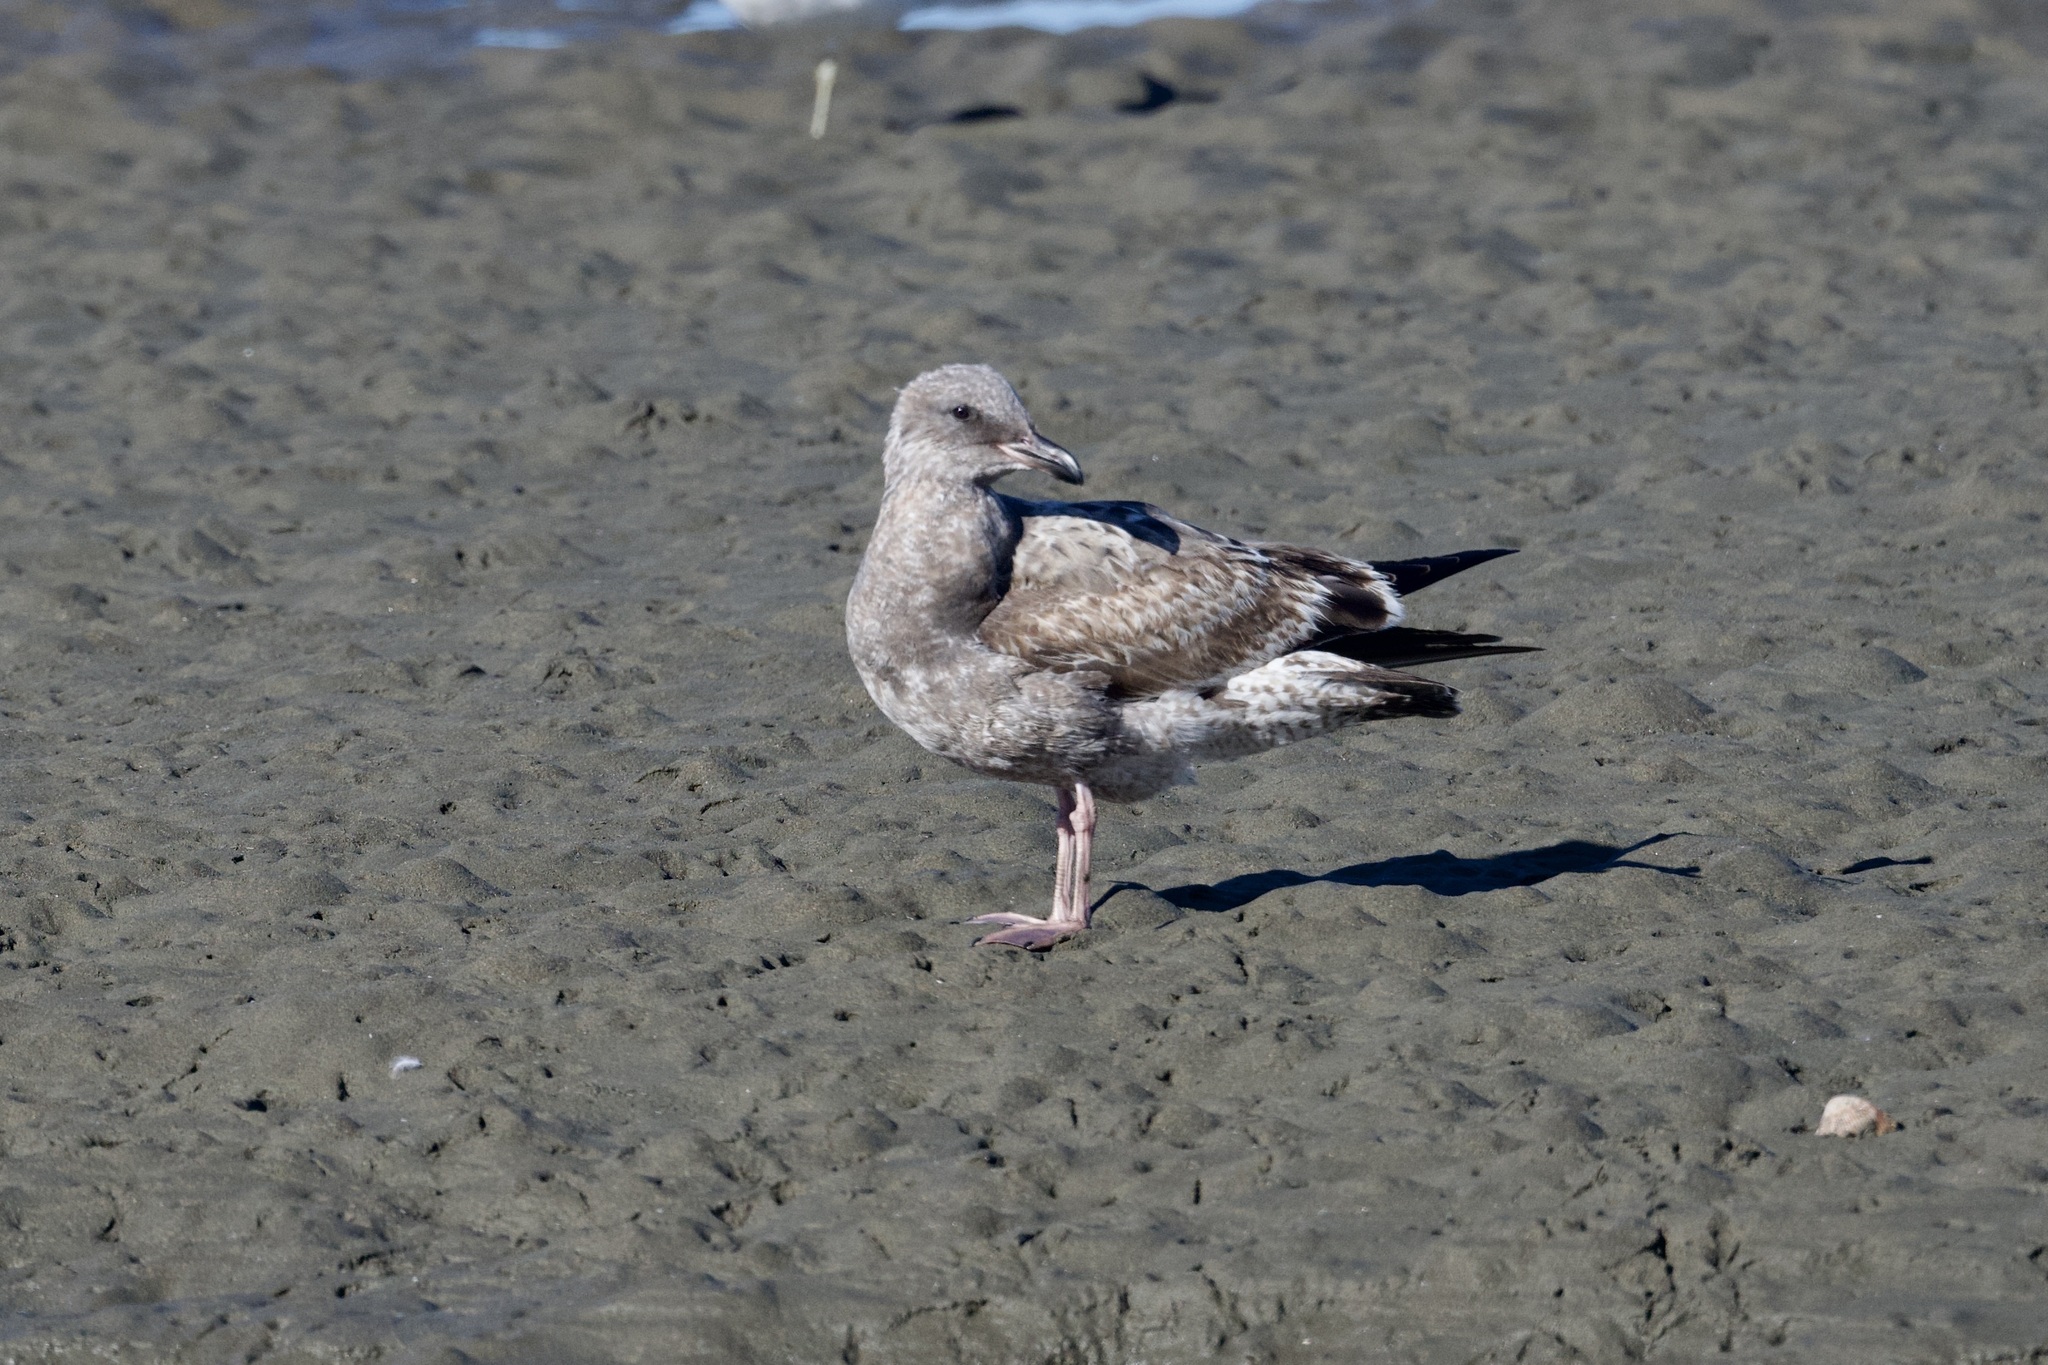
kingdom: Animalia
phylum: Chordata
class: Aves
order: Charadriiformes
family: Laridae
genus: Larus
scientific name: Larus occidentalis
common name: Western gull
